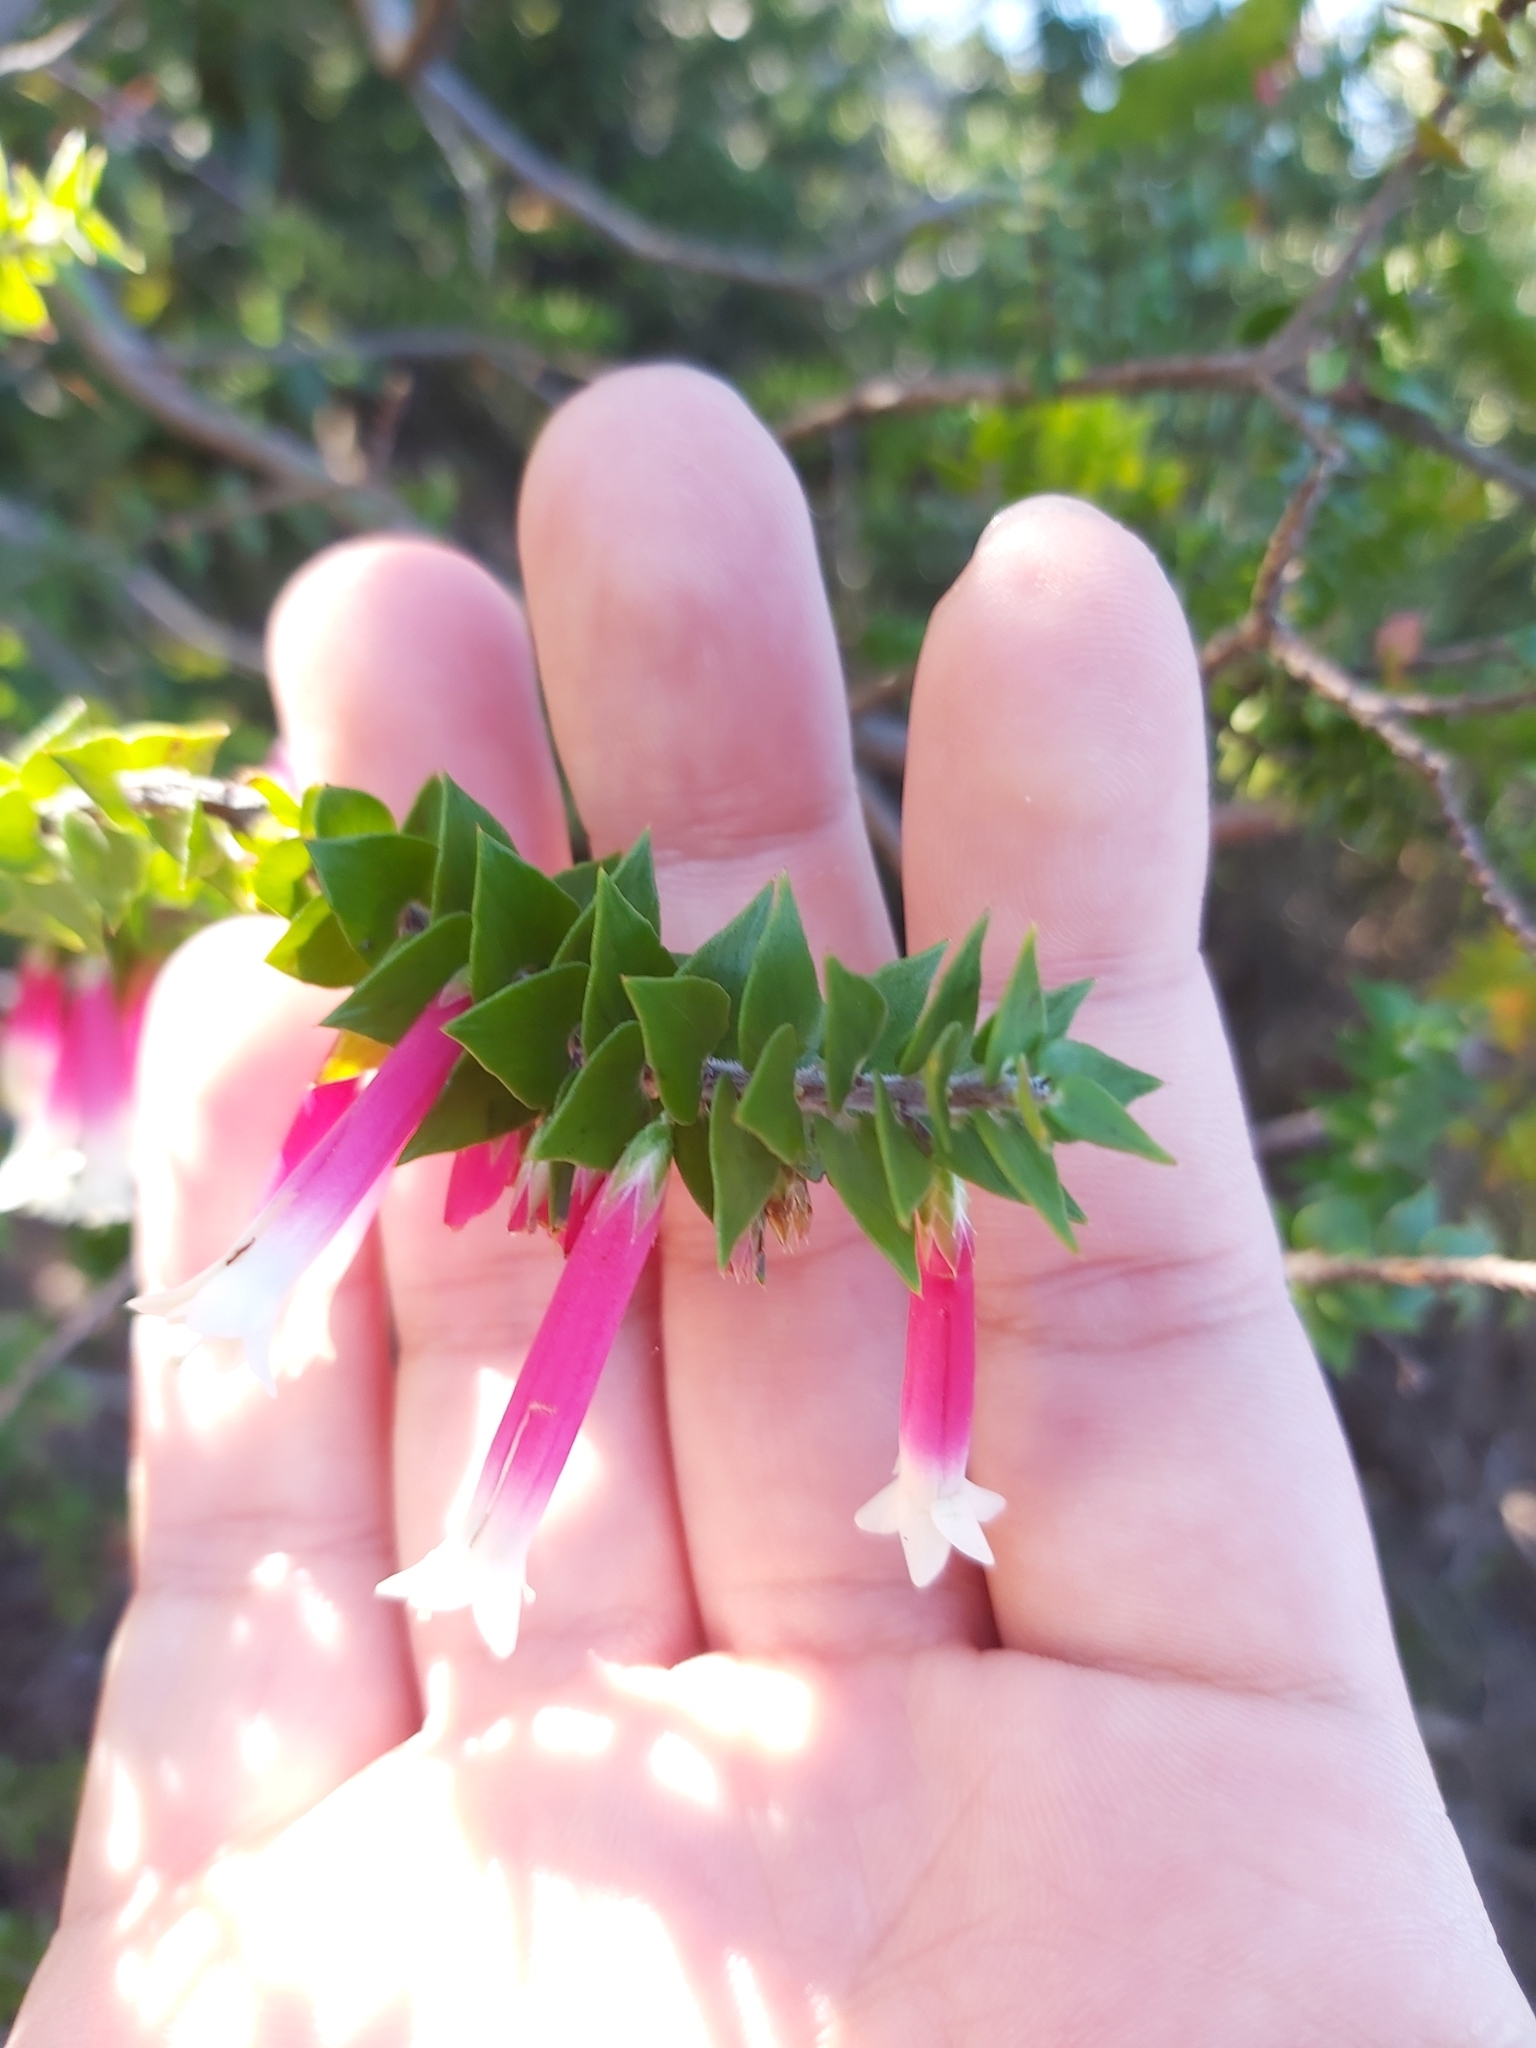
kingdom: Plantae
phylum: Tracheophyta
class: Magnoliopsida
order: Ericales
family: Ericaceae
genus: Epacris
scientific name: Epacris longiflora
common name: Fuchsia-heath
